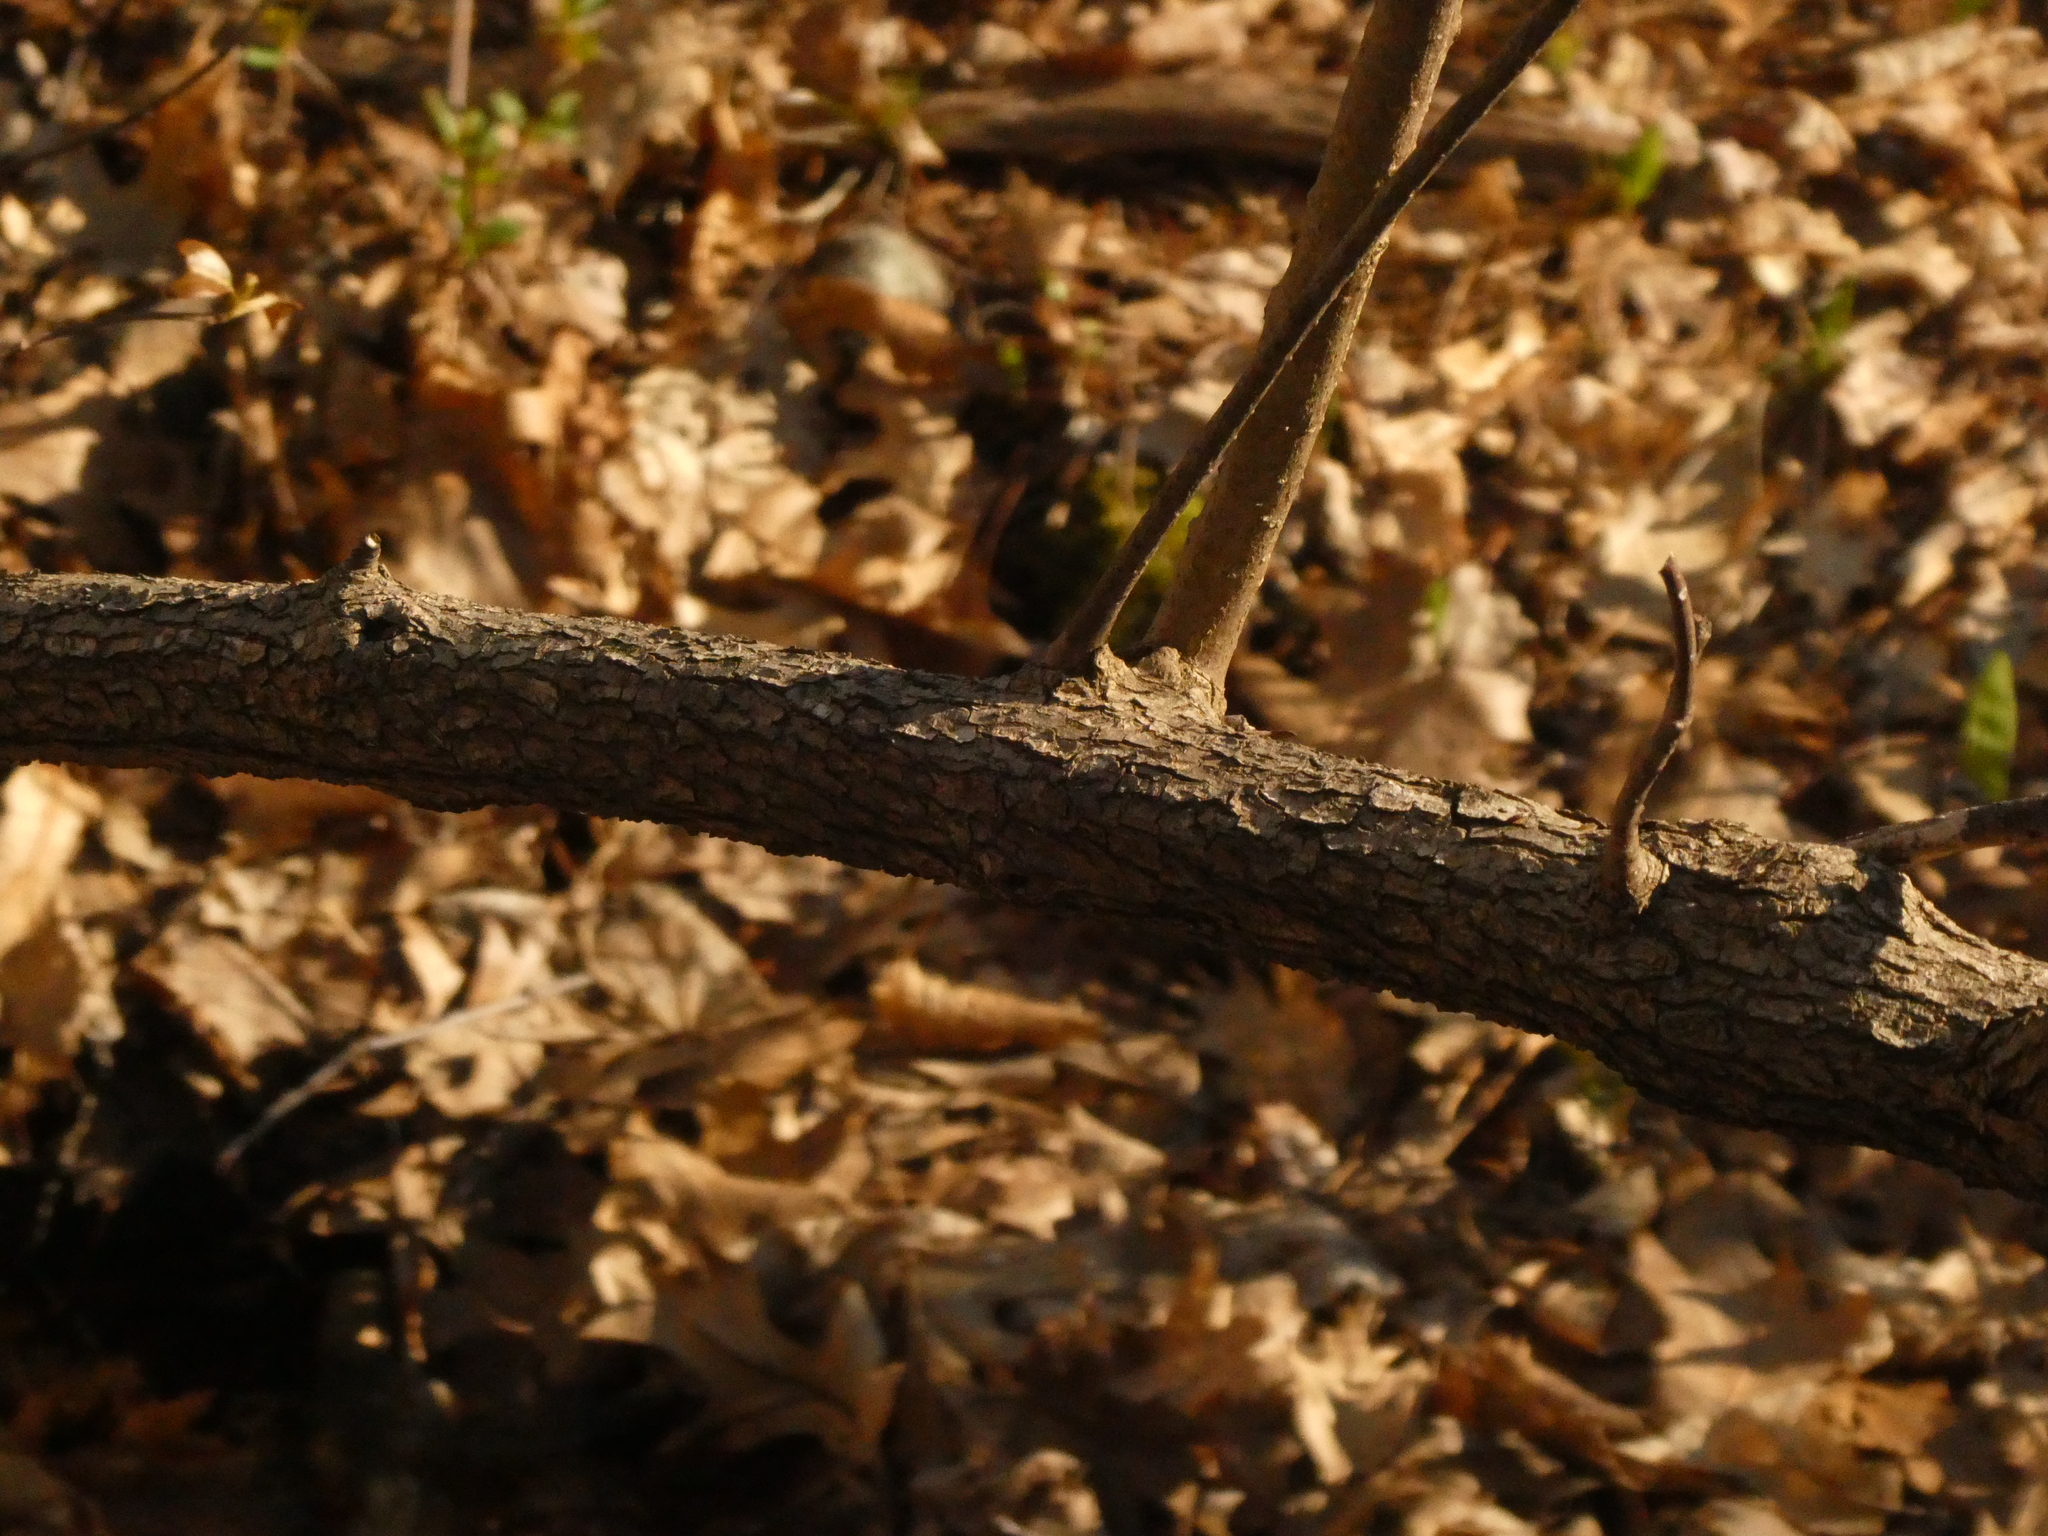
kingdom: Plantae
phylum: Tracheophyta
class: Magnoliopsida
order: Dipsacales
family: Viburnaceae
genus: Viburnum
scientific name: Viburnum lentago
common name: Black haw
